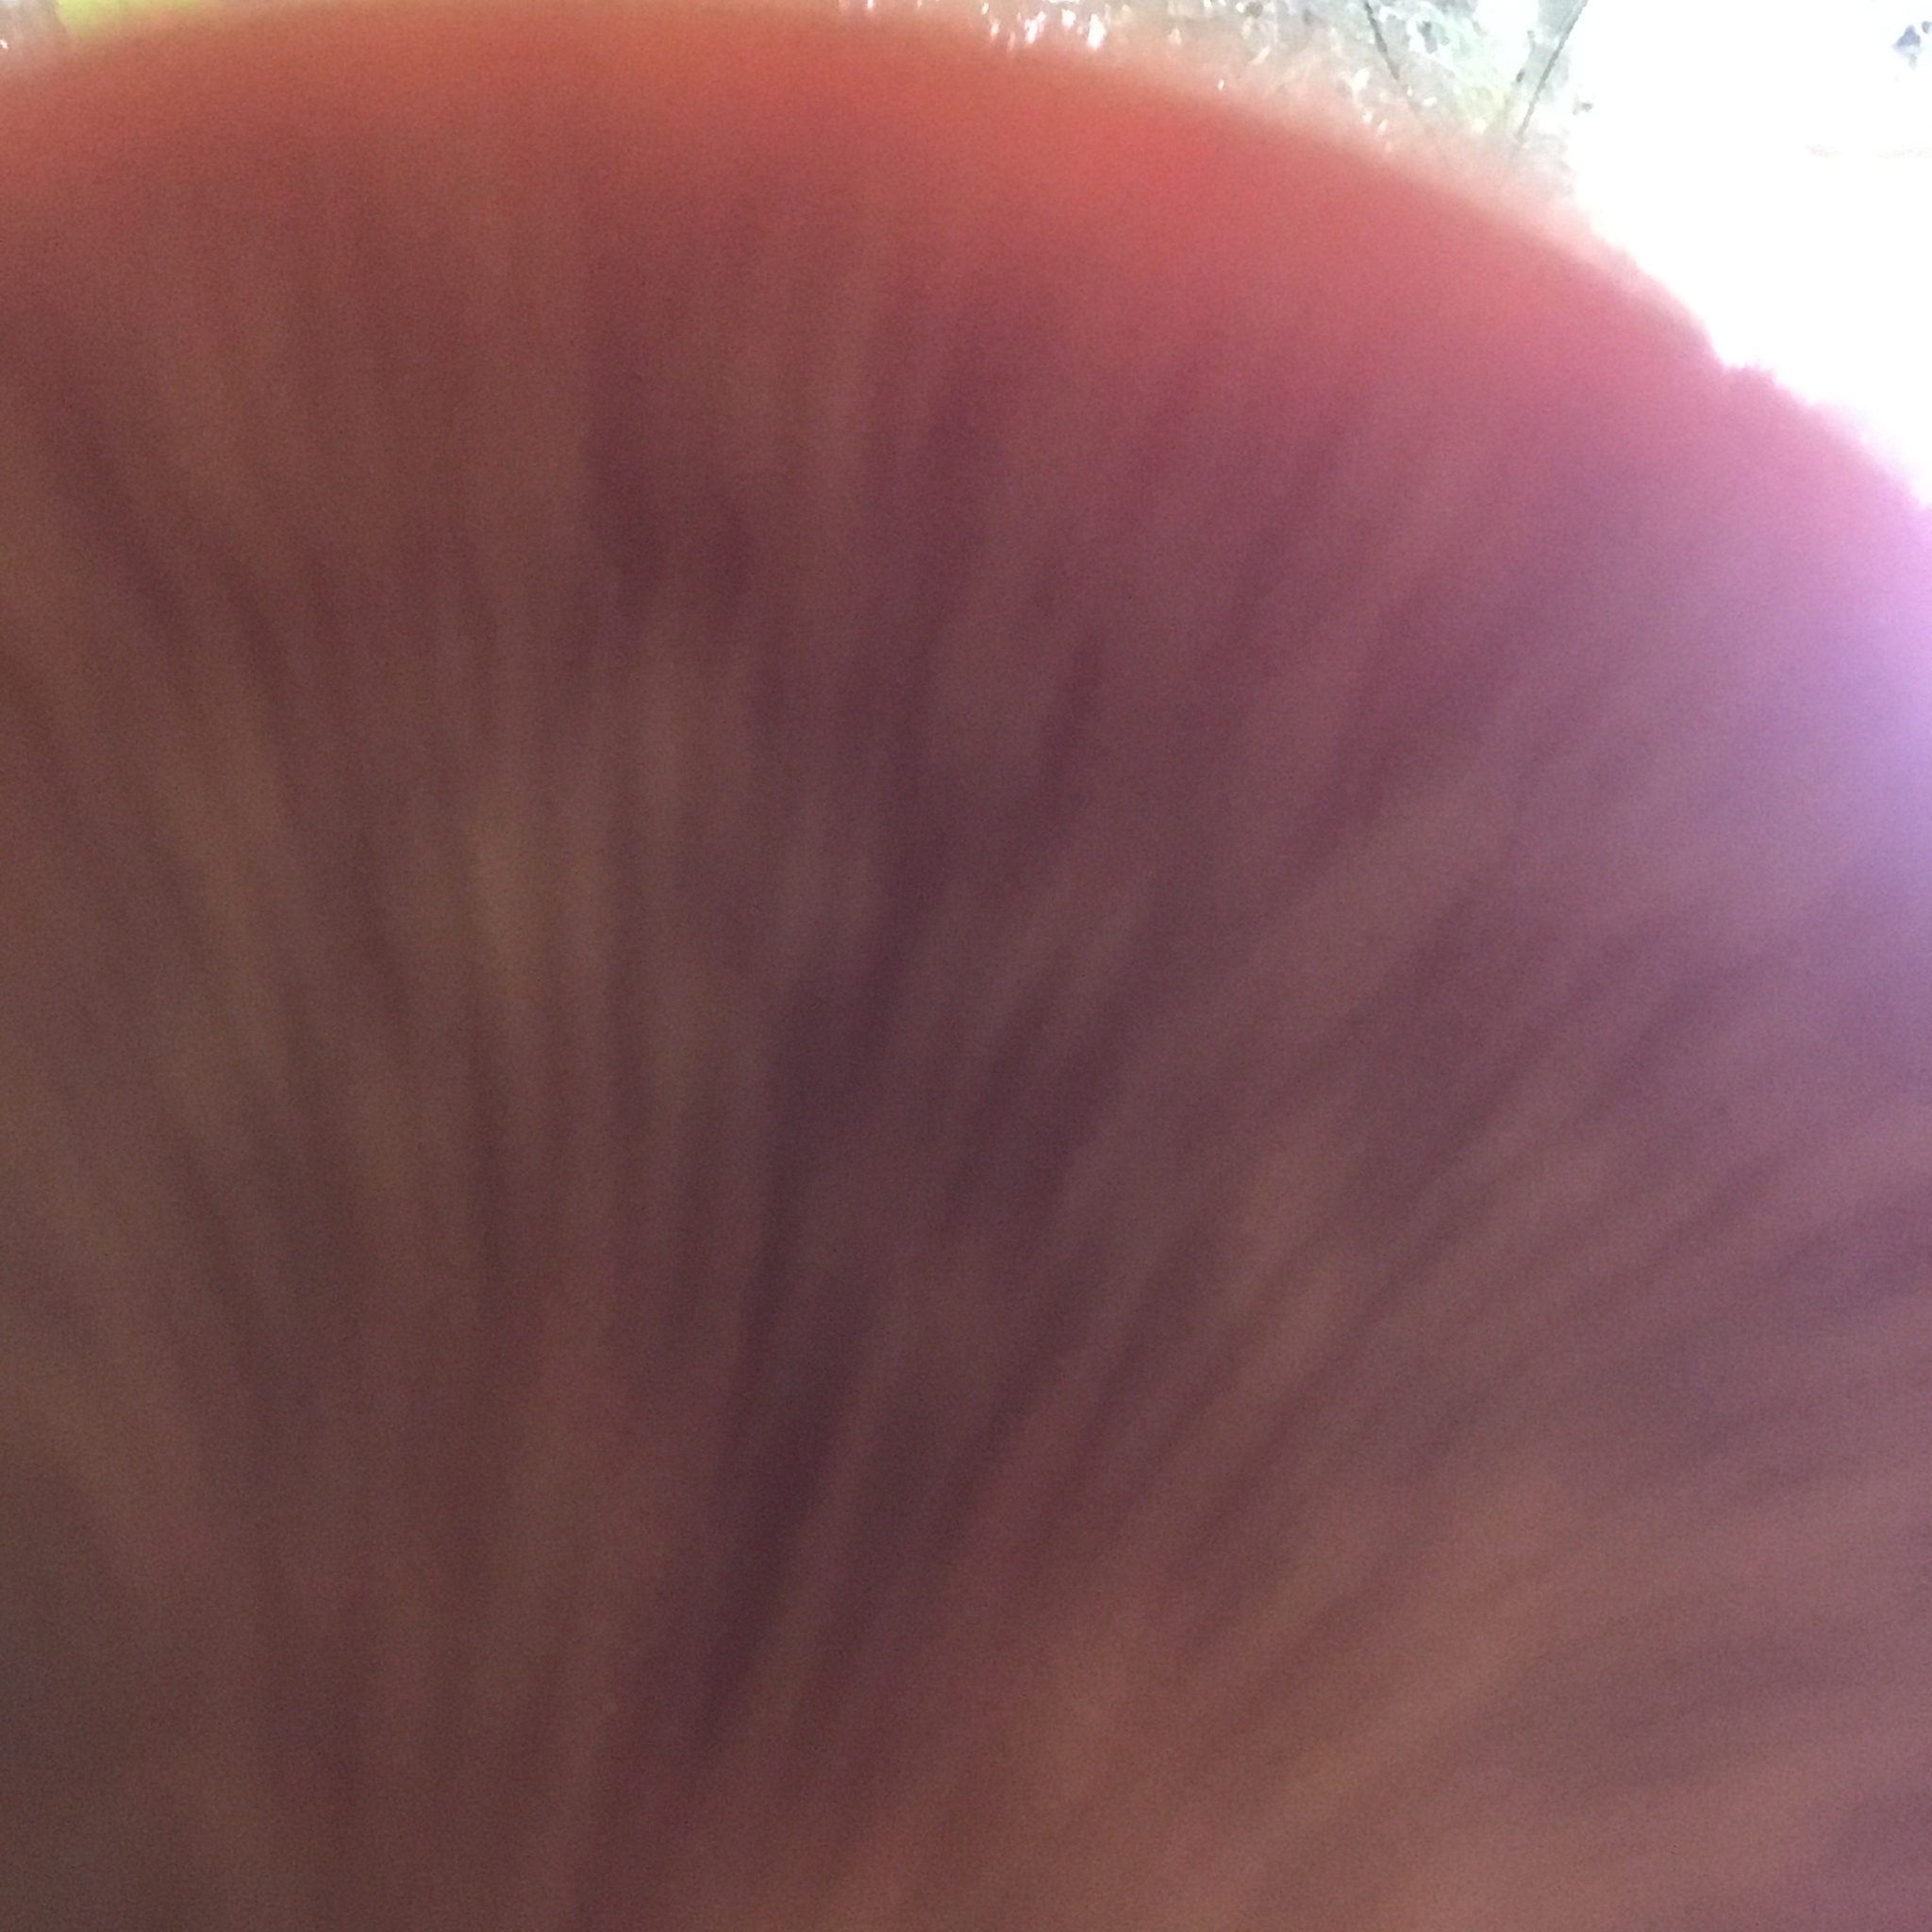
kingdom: Fungi
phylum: Basidiomycota
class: Agaricomycetes
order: Boletales
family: Hygrophoropsidaceae
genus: Hygrophoropsis
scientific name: Hygrophoropsis aurantiaca
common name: False chanterelle
